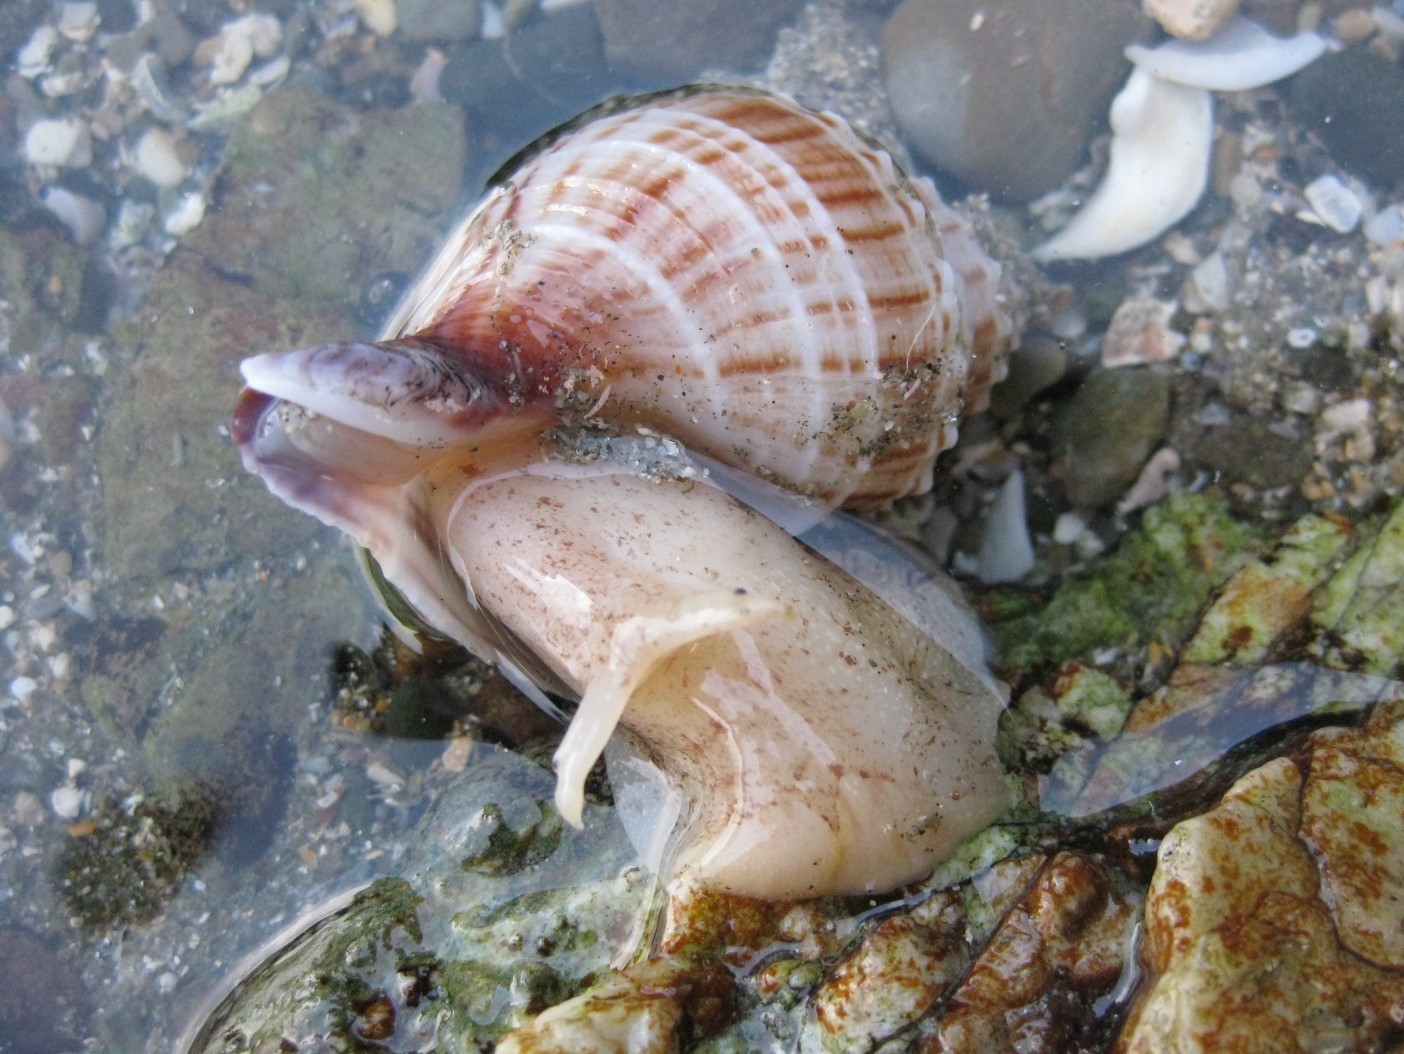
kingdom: Animalia
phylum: Mollusca
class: Gastropoda
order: Neogastropoda
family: Prosiphonidae
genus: Austrofusus
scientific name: Austrofusus glans
